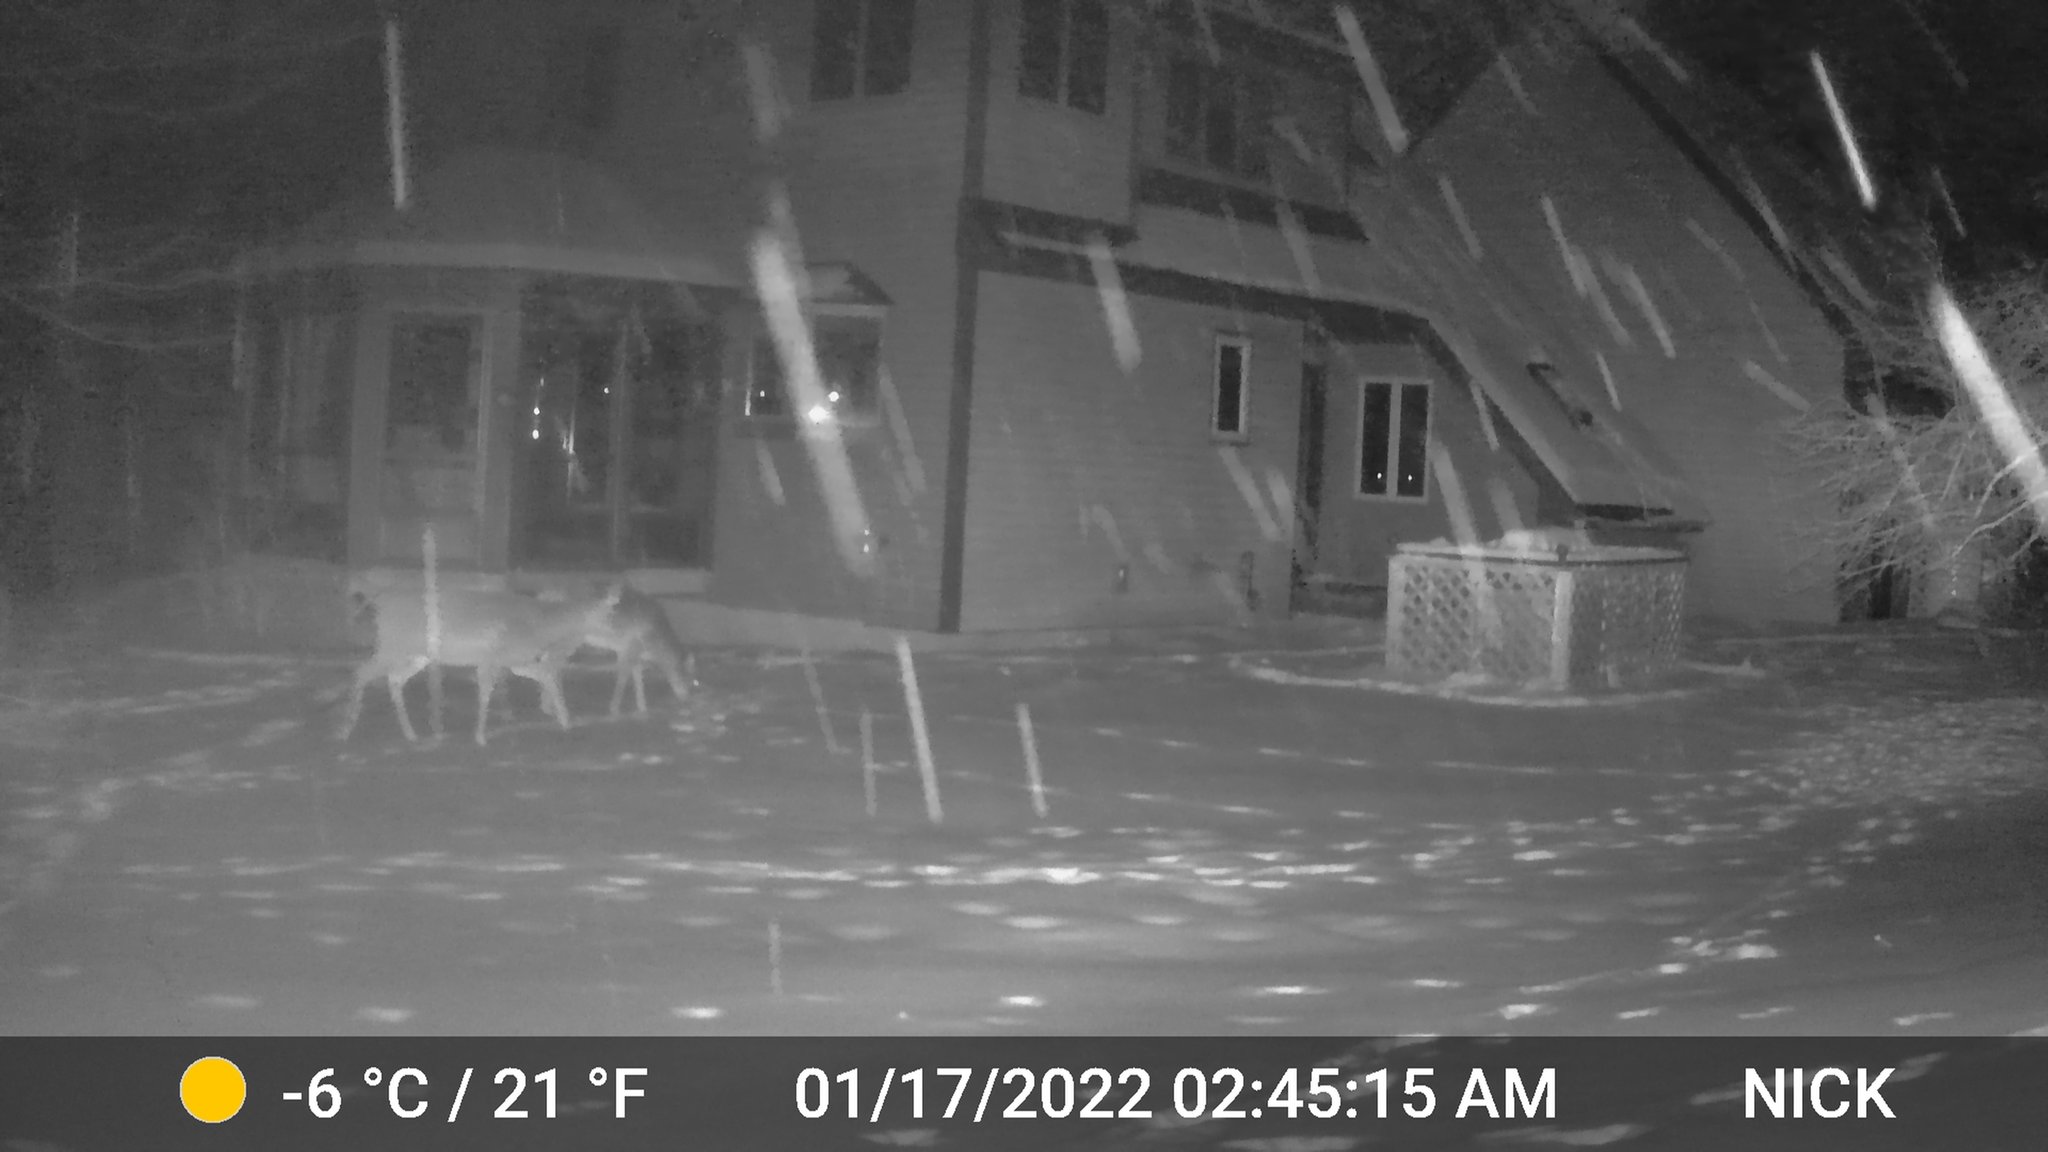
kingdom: Animalia
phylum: Chordata
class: Mammalia
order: Artiodactyla
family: Cervidae
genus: Odocoileus
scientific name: Odocoileus virginianus
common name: White-tailed deer
